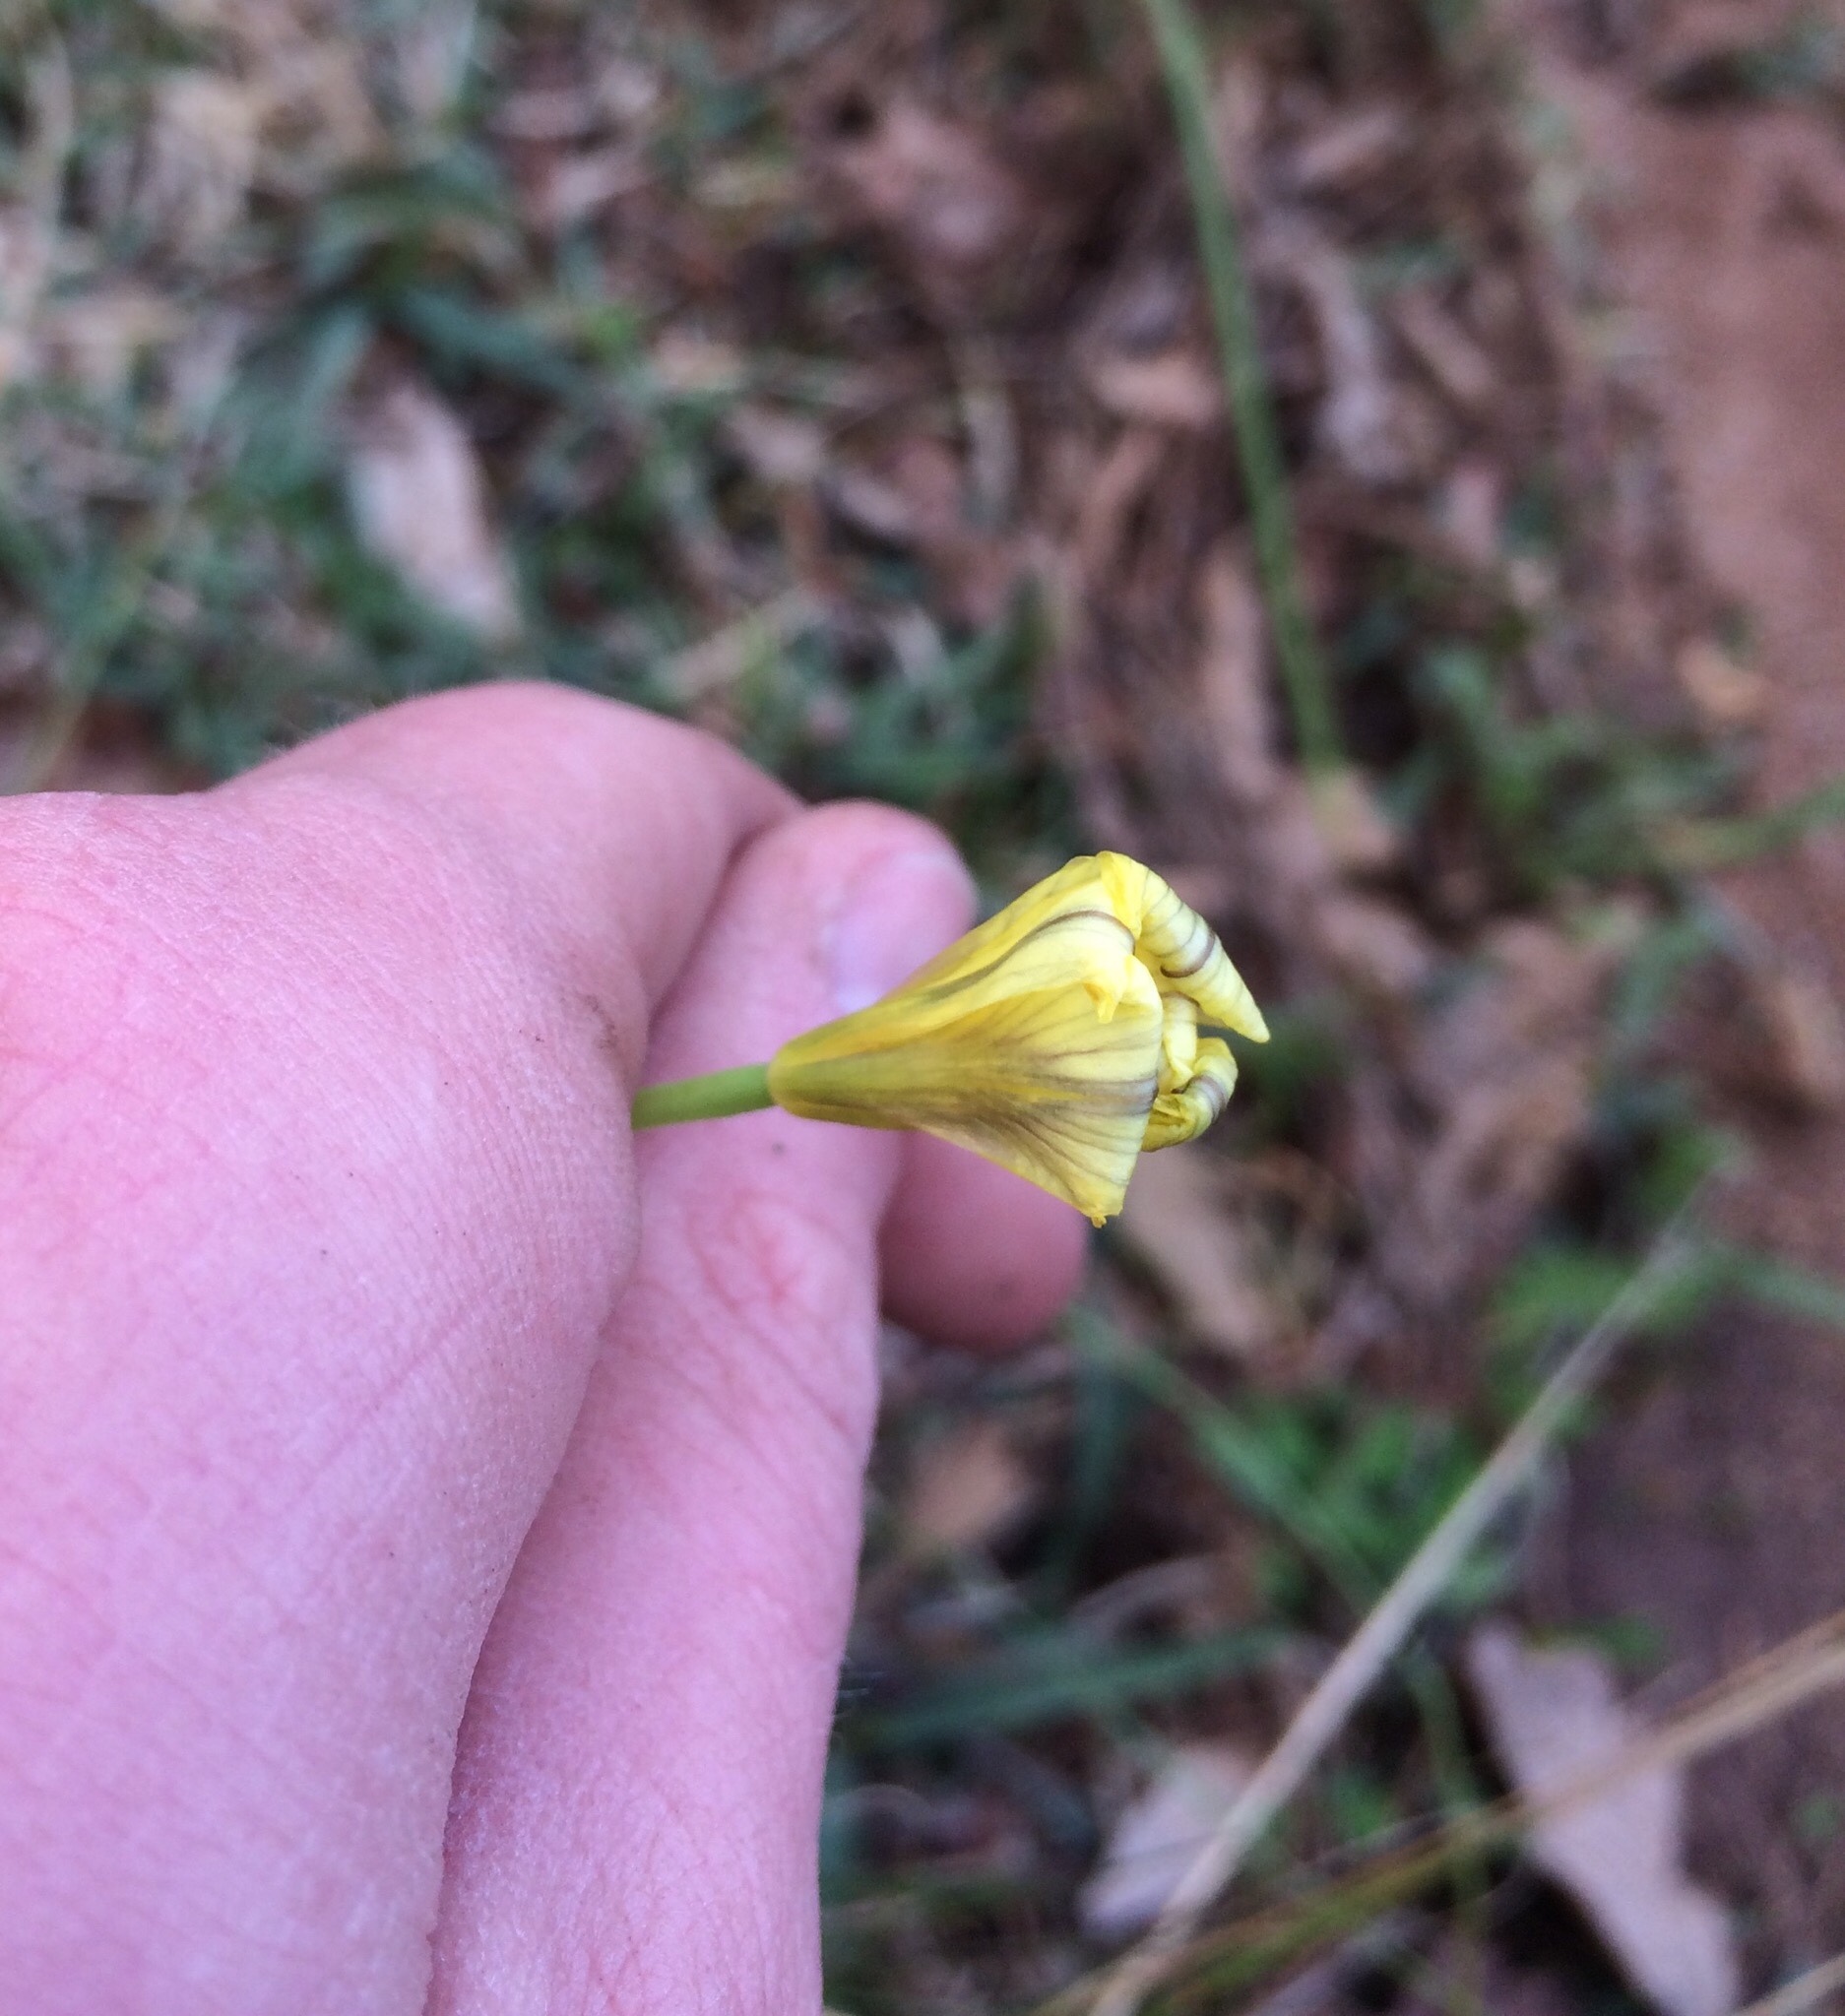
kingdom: Plantae
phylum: Tracheophyta
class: Liliopsida
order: Asparagales
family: Iridaceae
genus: Moraea
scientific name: Moraea collina
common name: Cape-tulip
